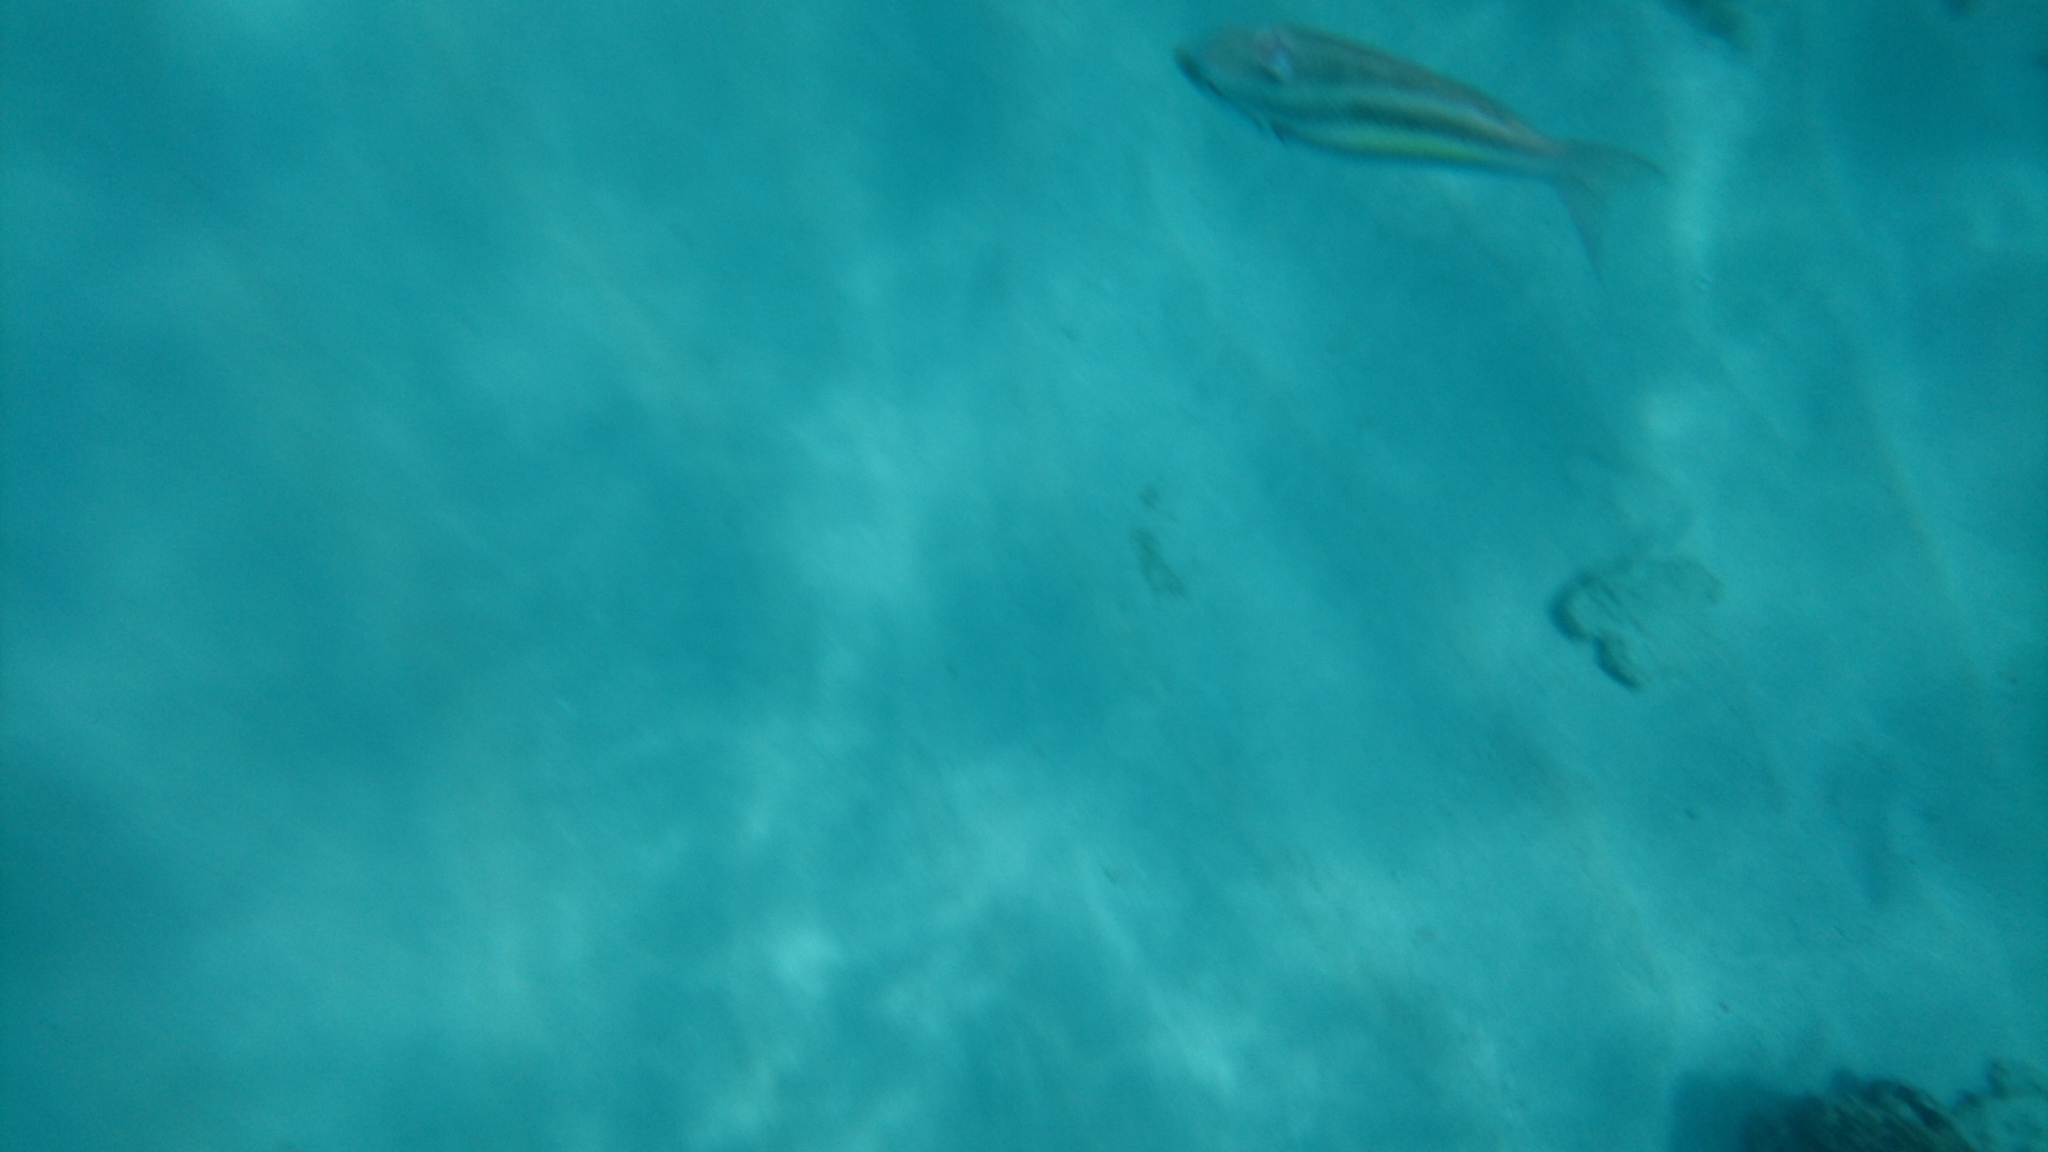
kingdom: Animalia
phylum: Chordata
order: Perciformes
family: Nemipteridae
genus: Pentapodus
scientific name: Pentapodus trivittatus
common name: Three-striped whiptail
